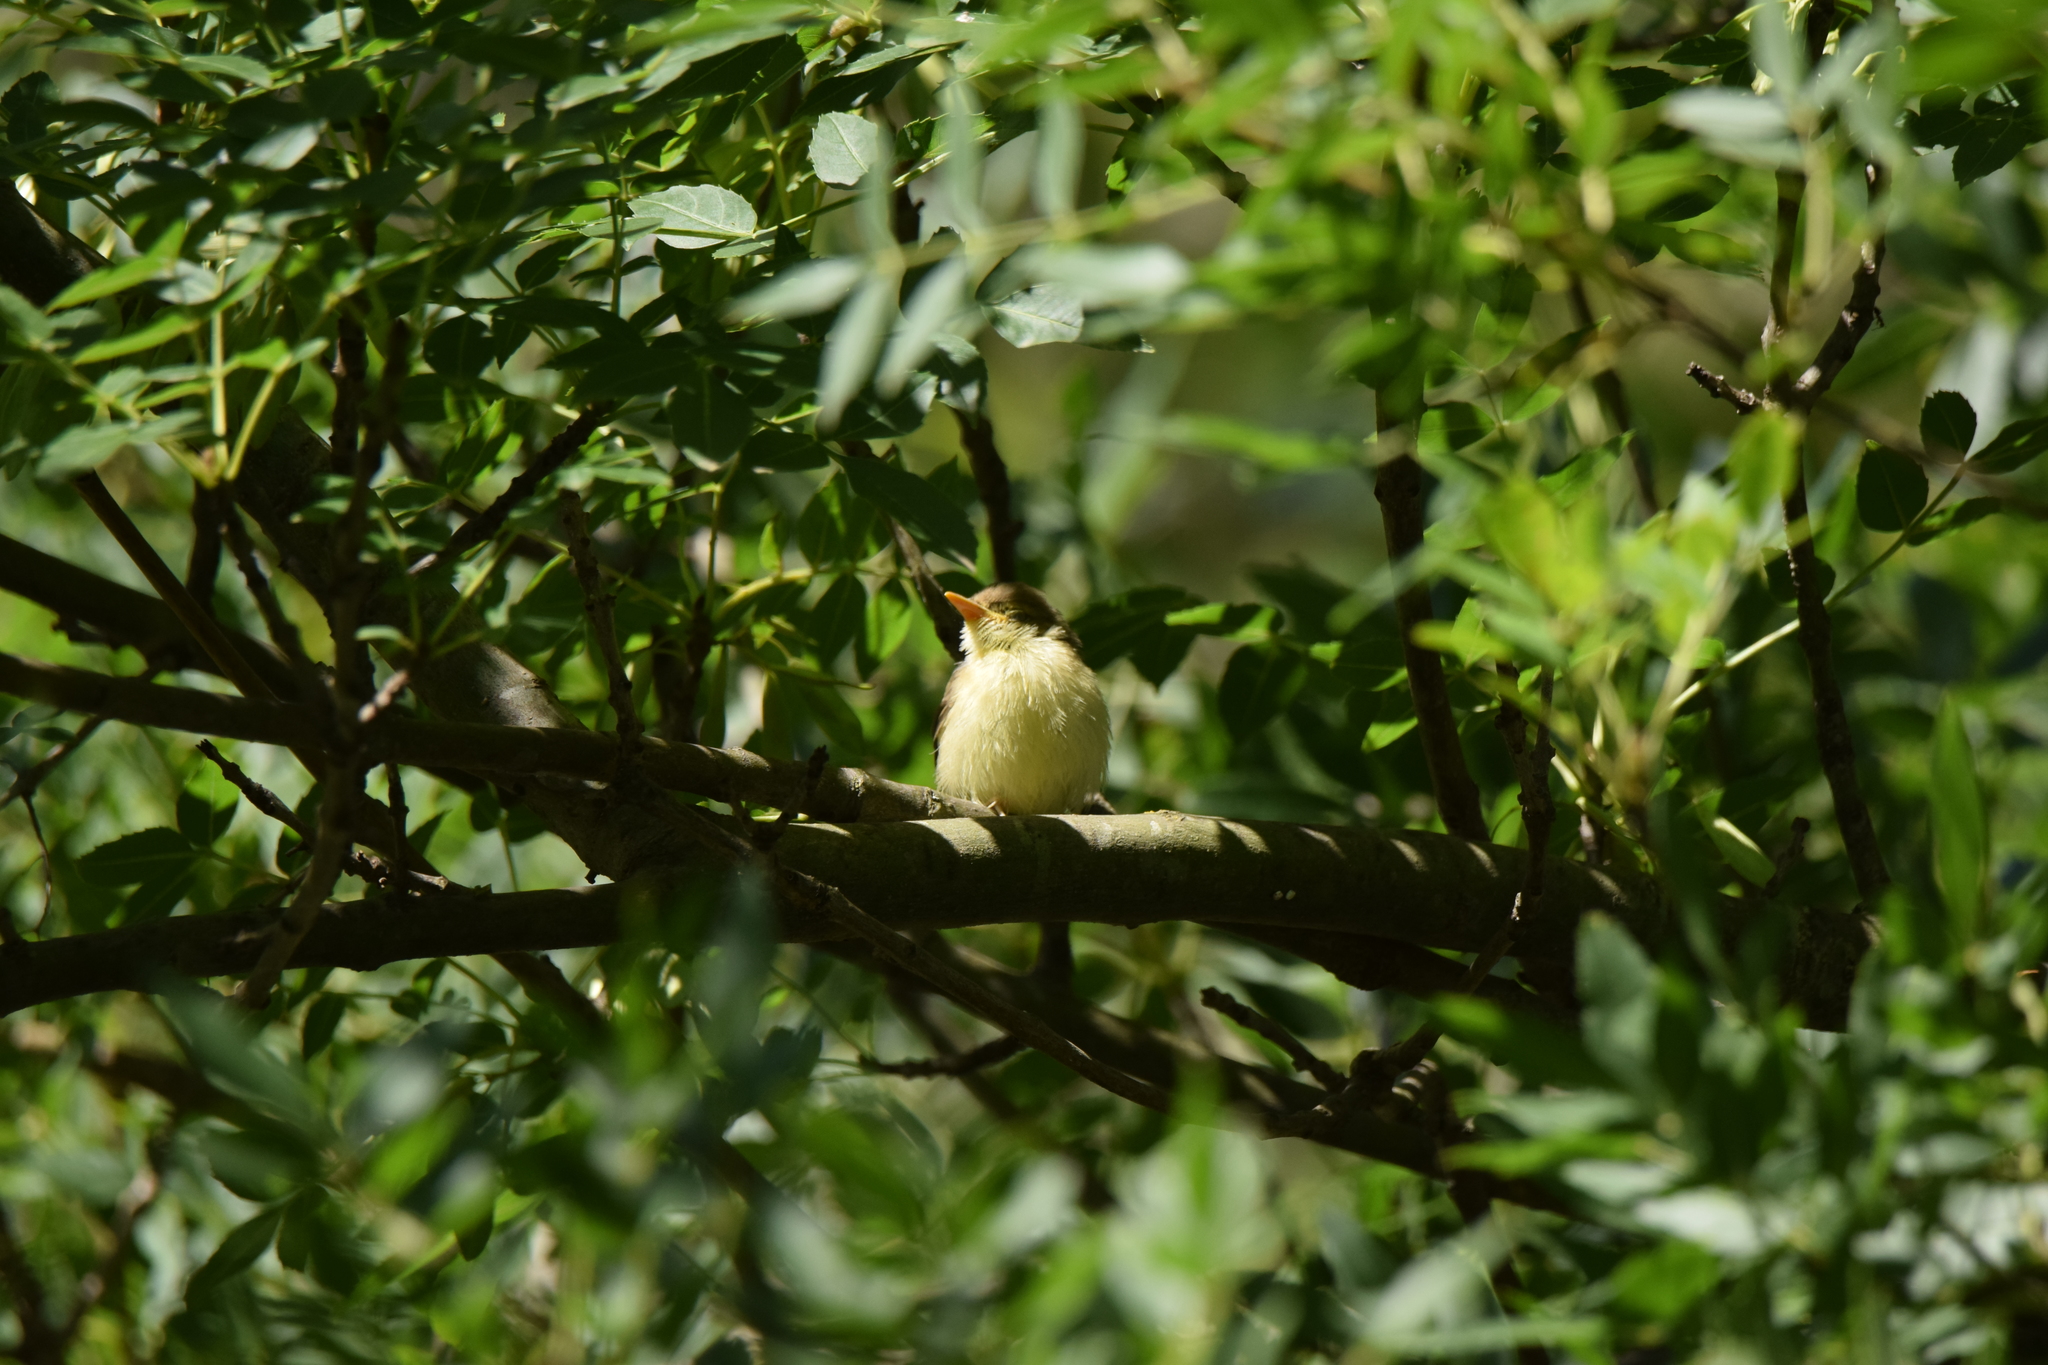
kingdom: Animalia
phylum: Chordata
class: Aves
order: Passeriformes
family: Acrocephalidae
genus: Hippolais
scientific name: Hippolais polyglotta
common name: Melodious warbler
